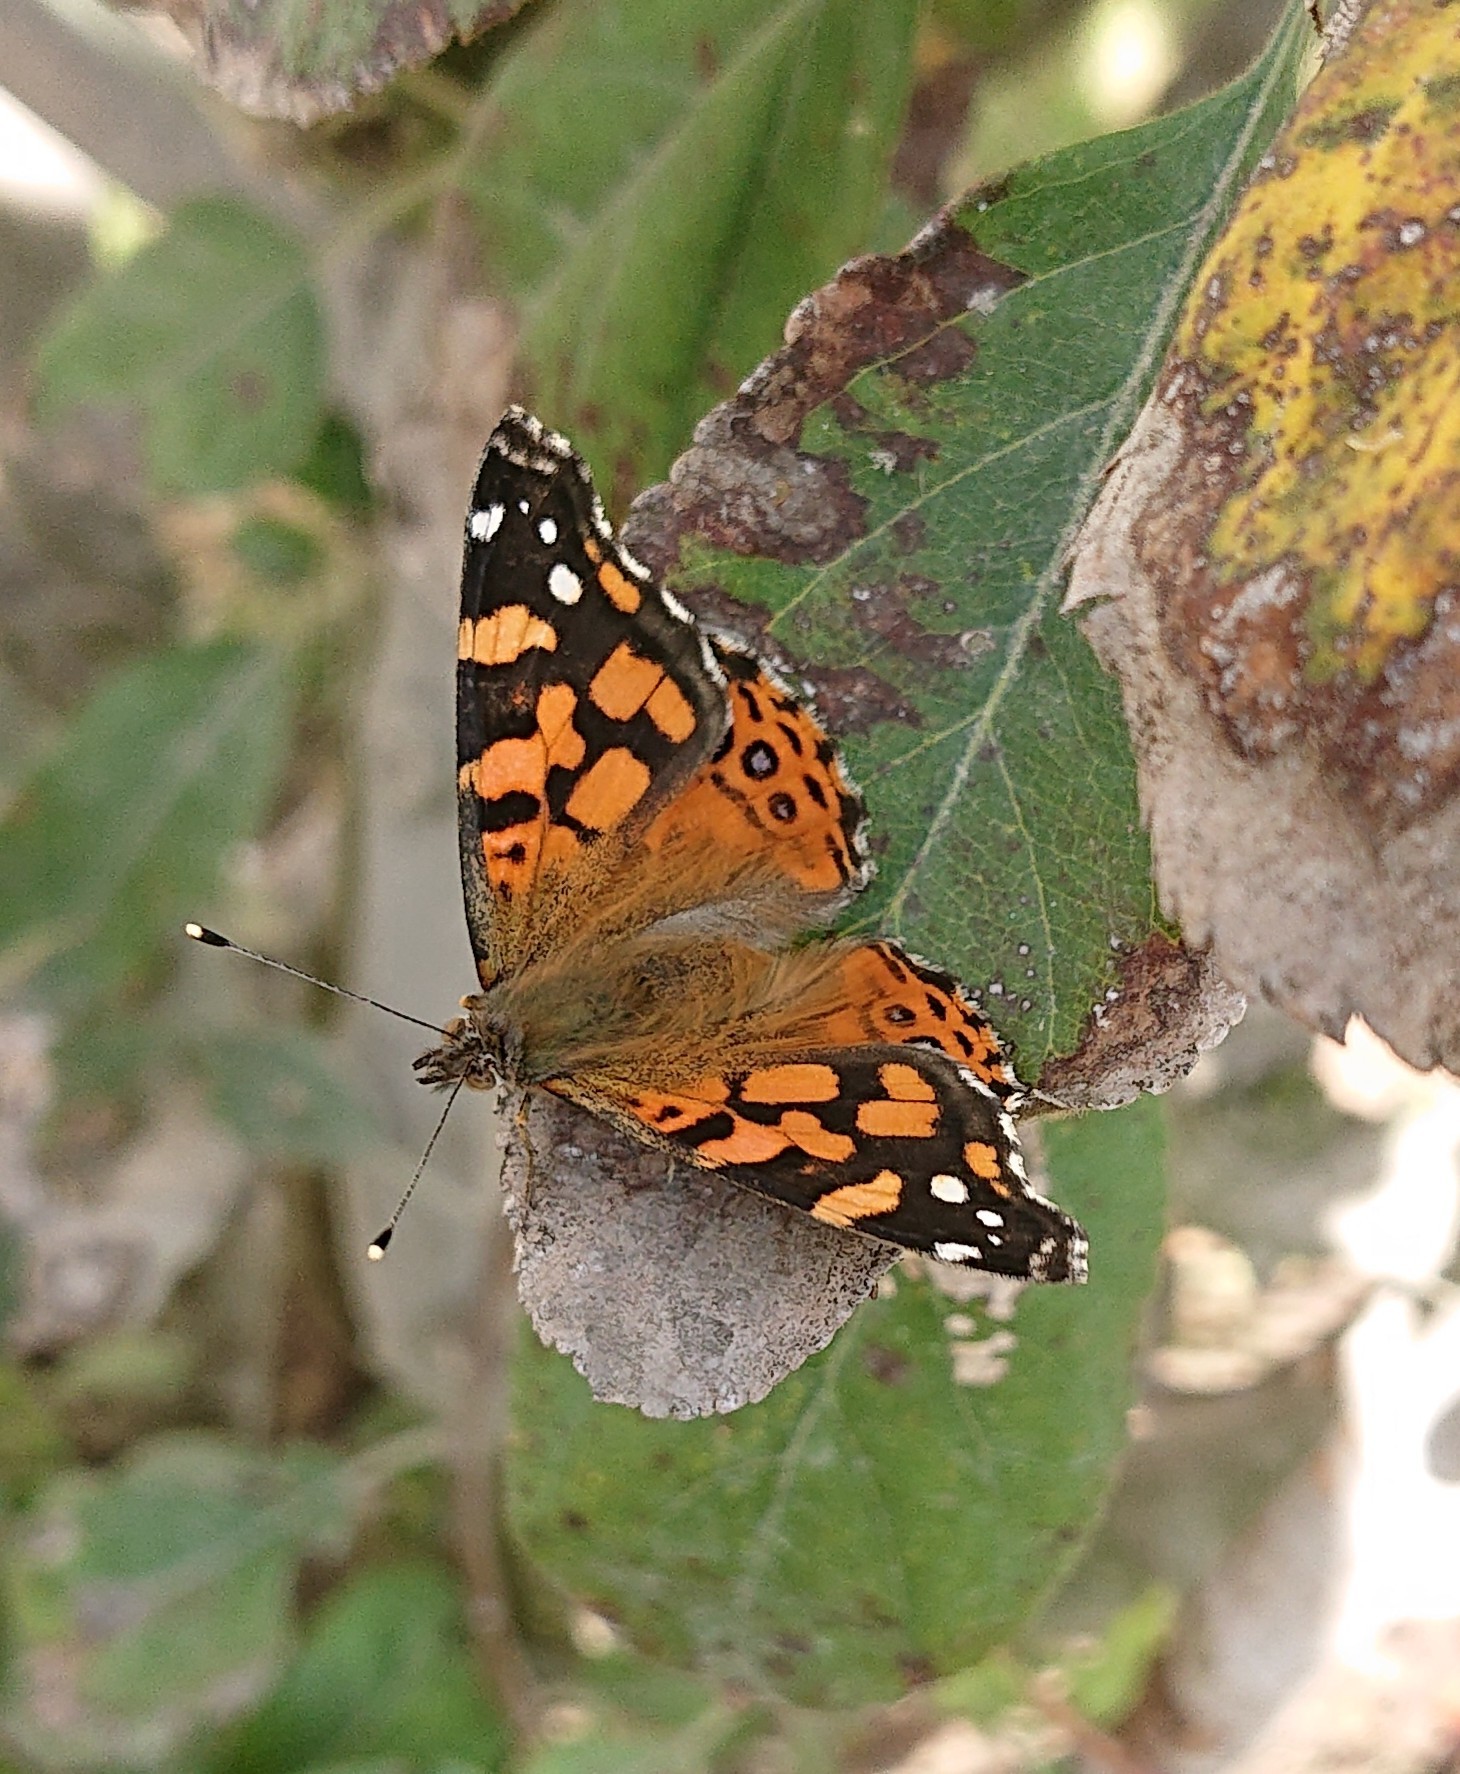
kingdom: Animalia
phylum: Arthropoda
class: Insecta
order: Lepidoptera
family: Nymphalidae
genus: Vanessa
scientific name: Vanessa carye
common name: Subtropical lady
